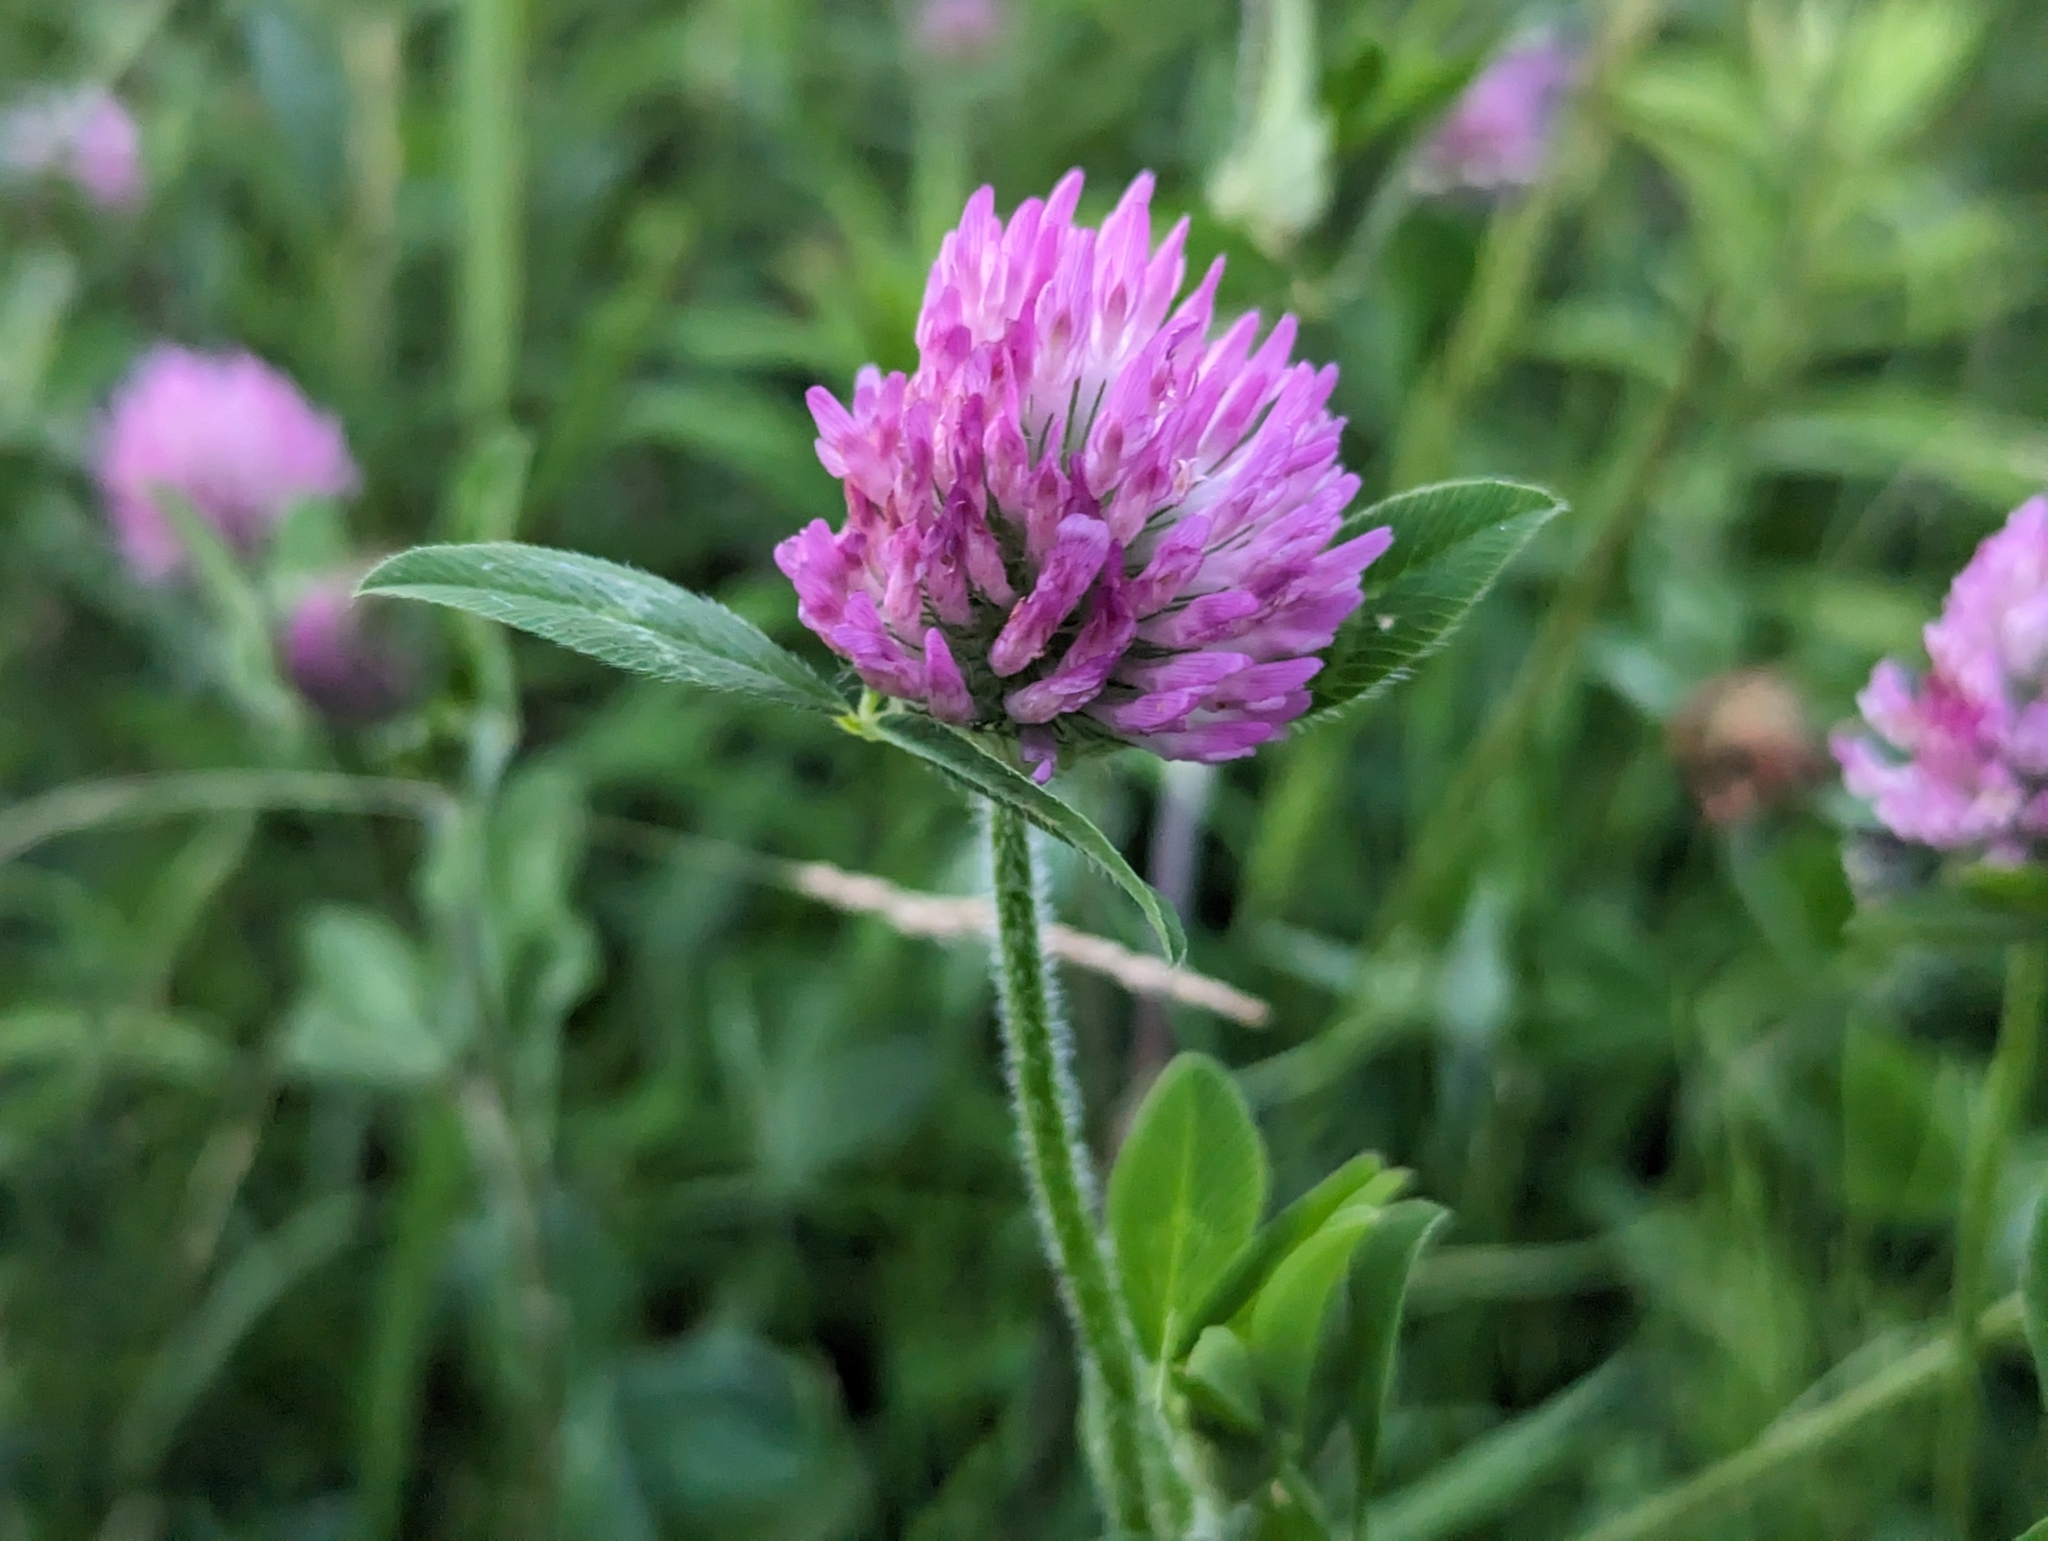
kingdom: Plantae
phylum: Tracheophyta
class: Magnoliopsida
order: Fabales
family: Fabaceae
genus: Trifolium
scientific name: Trifolium pratense
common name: Red clover
